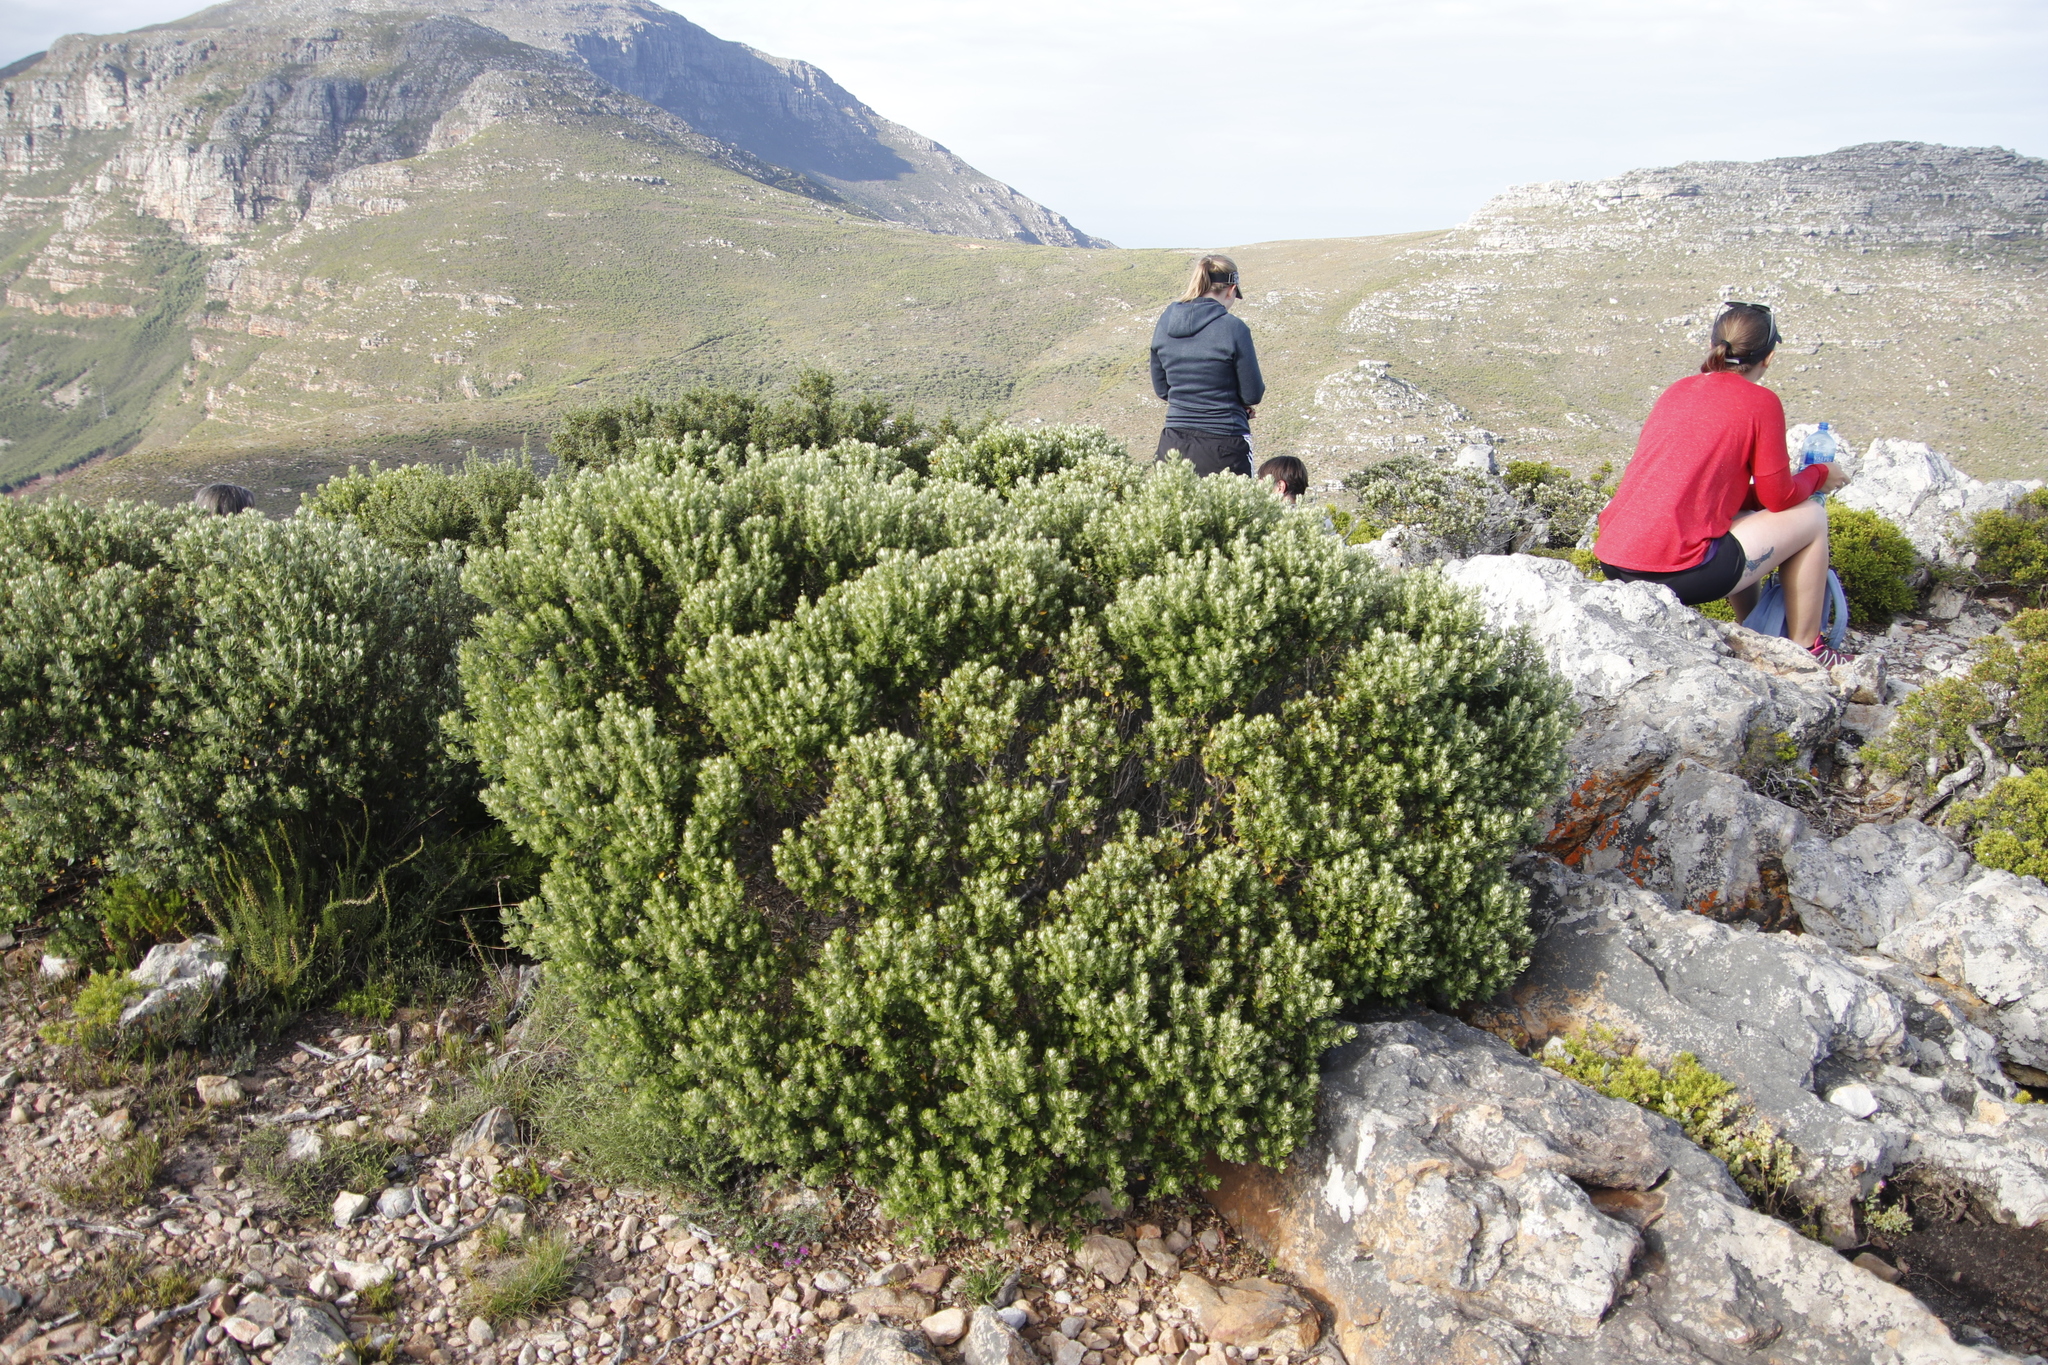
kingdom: Plantae
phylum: Tracheophyta
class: Magnoliopsida
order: Rosales
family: Rhamnaceae
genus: Phylica
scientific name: Phylica buxifolia
